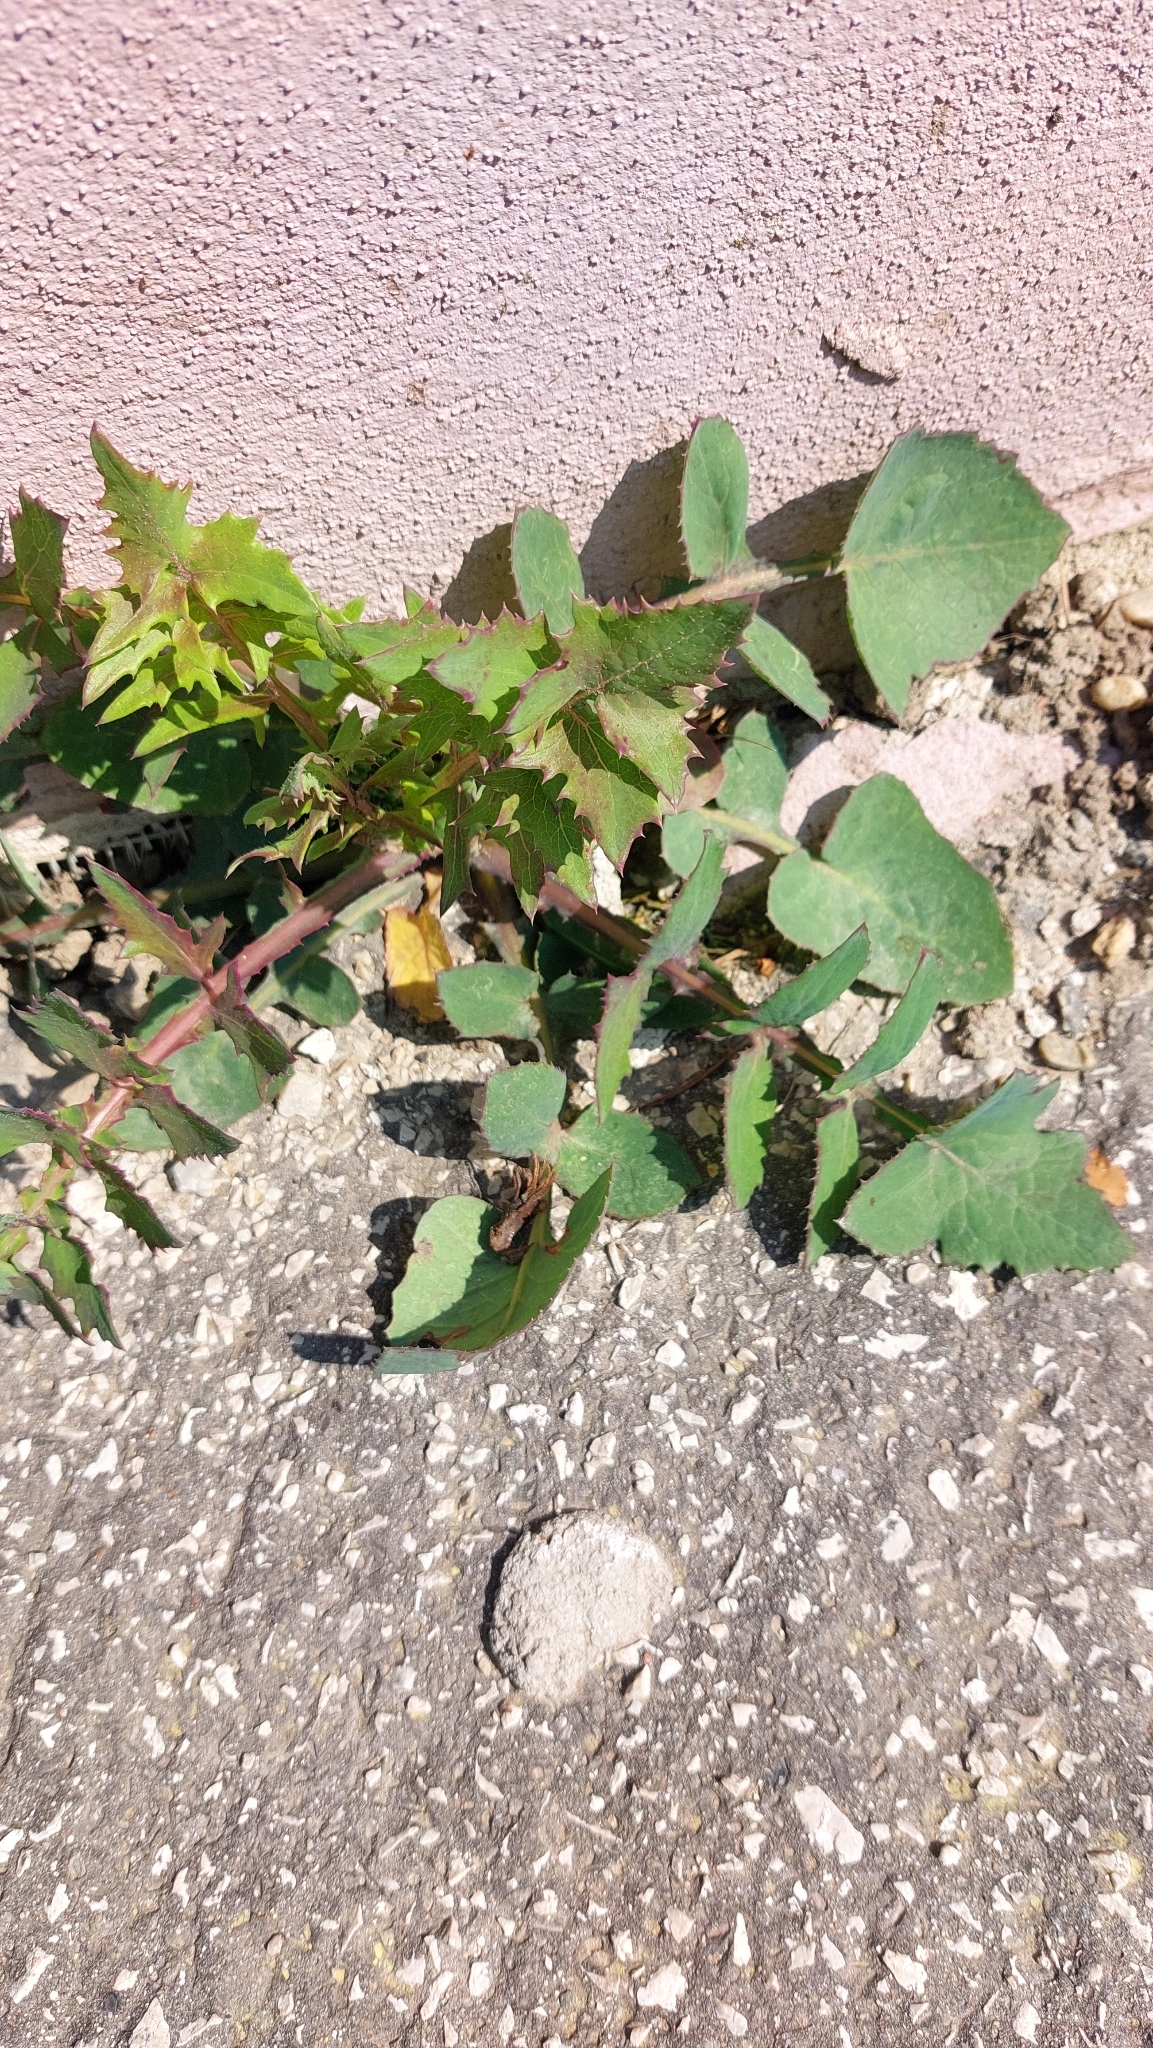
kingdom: Plantae
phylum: Tracheophyta
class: Magnoliopsida
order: Asterales
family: Asteraceae
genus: Sonchus
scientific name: Sonchus oleraceus
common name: Common sowthistle
